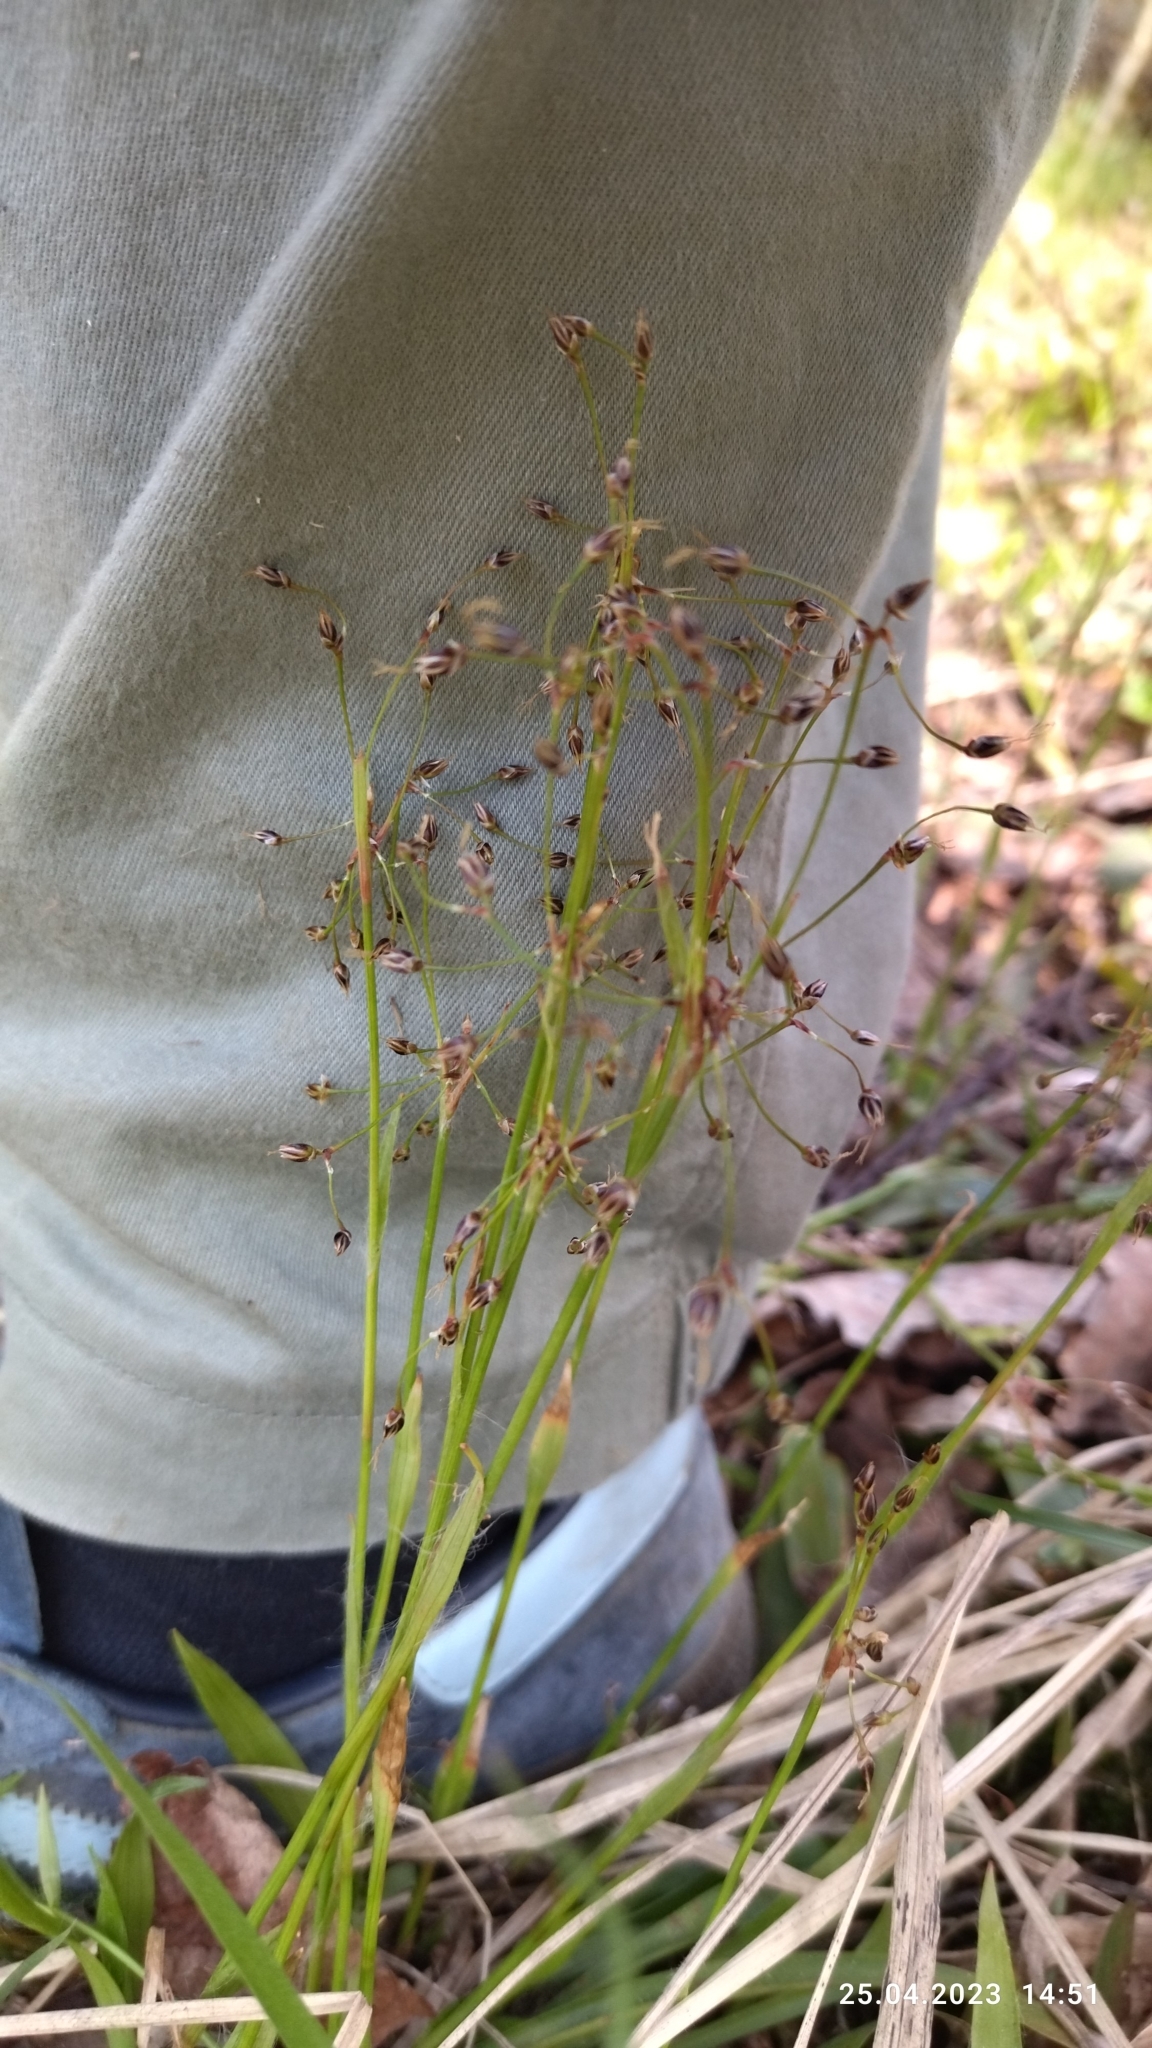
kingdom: Plantae
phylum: Tracheophyta
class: Liliopsida
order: Poales
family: Juncaceae
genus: Luzula
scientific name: Luzula pilosa
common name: Hairy wood-rush
